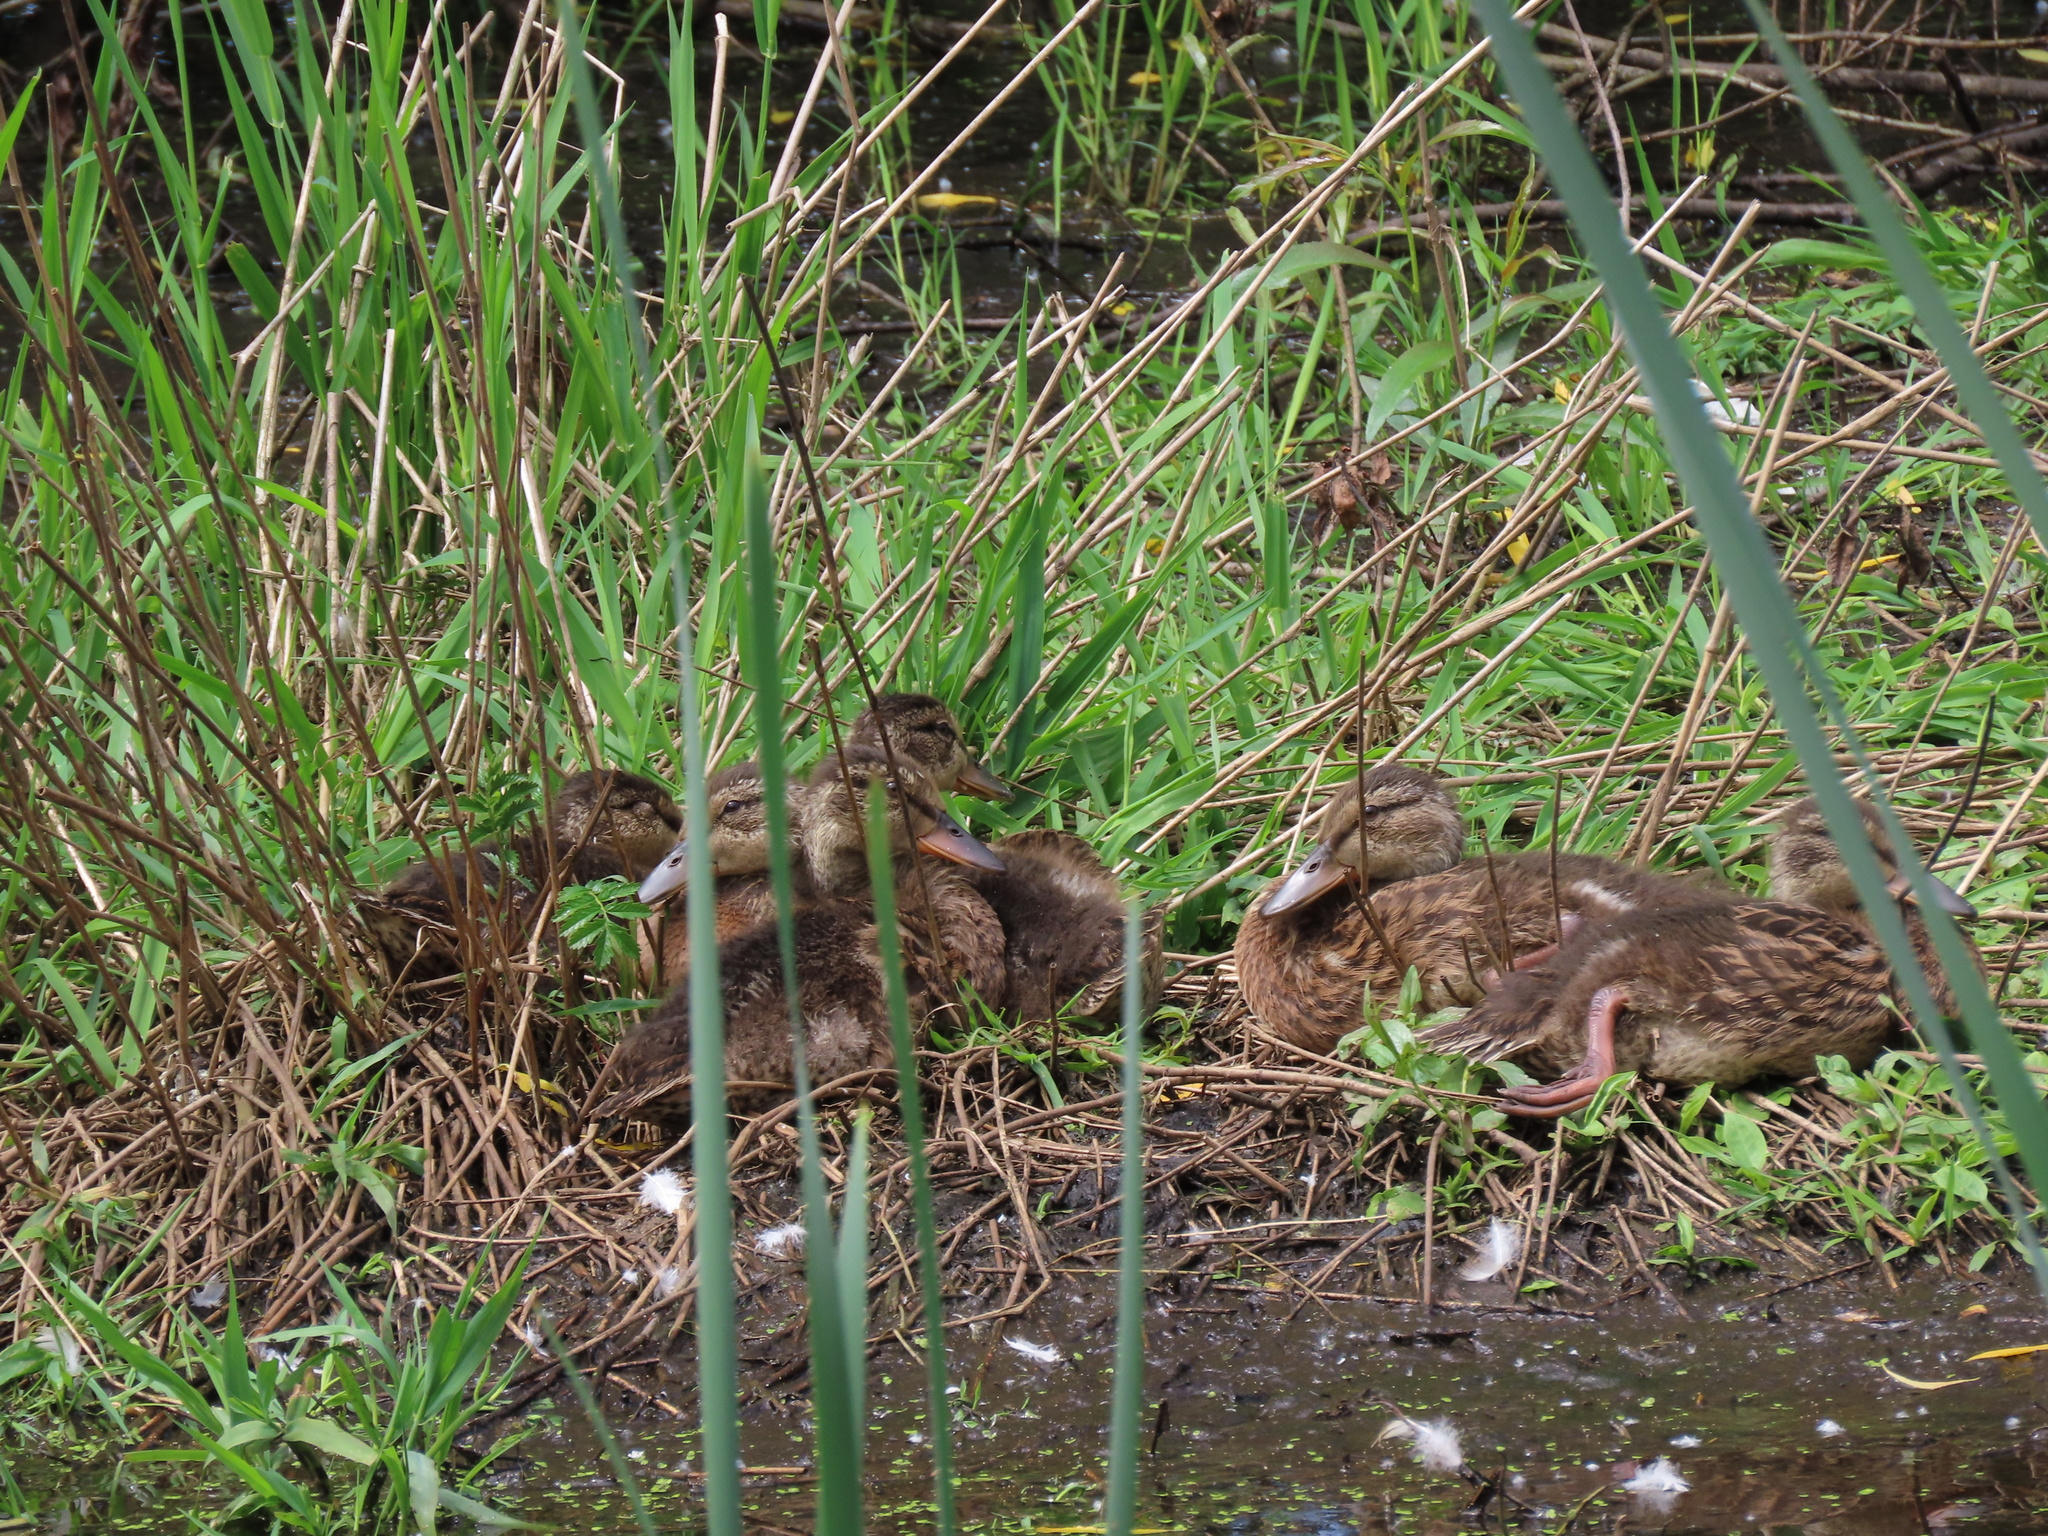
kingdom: Animalia
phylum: Chordata
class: Aves
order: Anseriformes
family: Anatidae
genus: Anas
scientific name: Anas platyrhynchos
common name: Mallard
